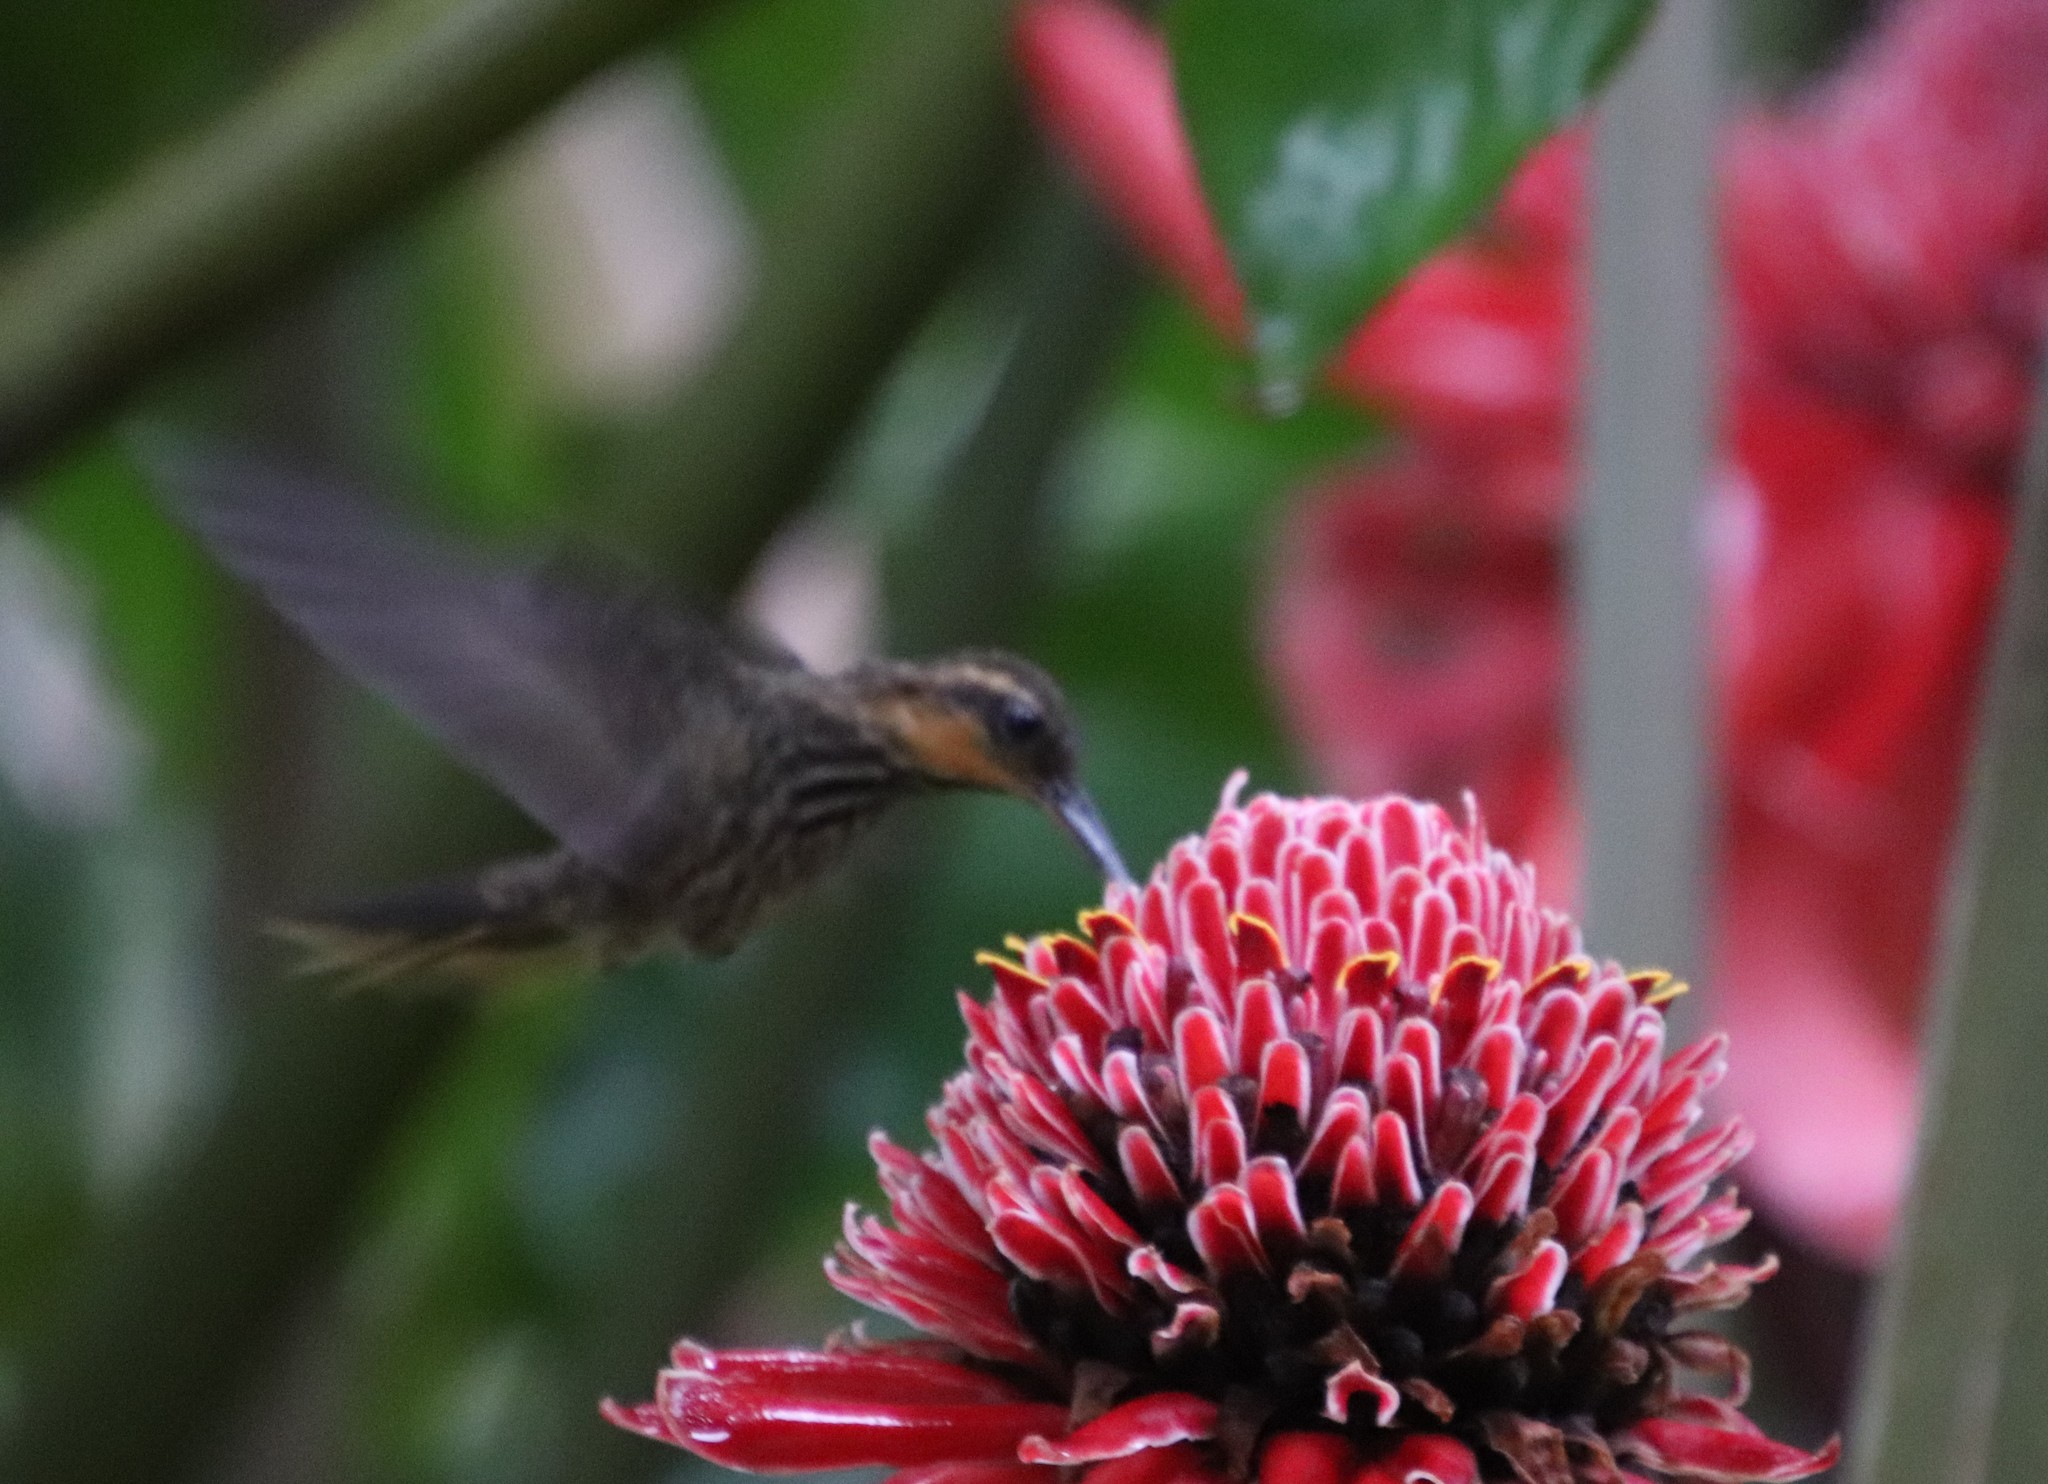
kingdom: Animalia
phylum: Chordata
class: Aves
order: Apodiformes
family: Trochilidae
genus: Ramphodon
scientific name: Ramphodon naevius
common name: Saw-billed hermit
